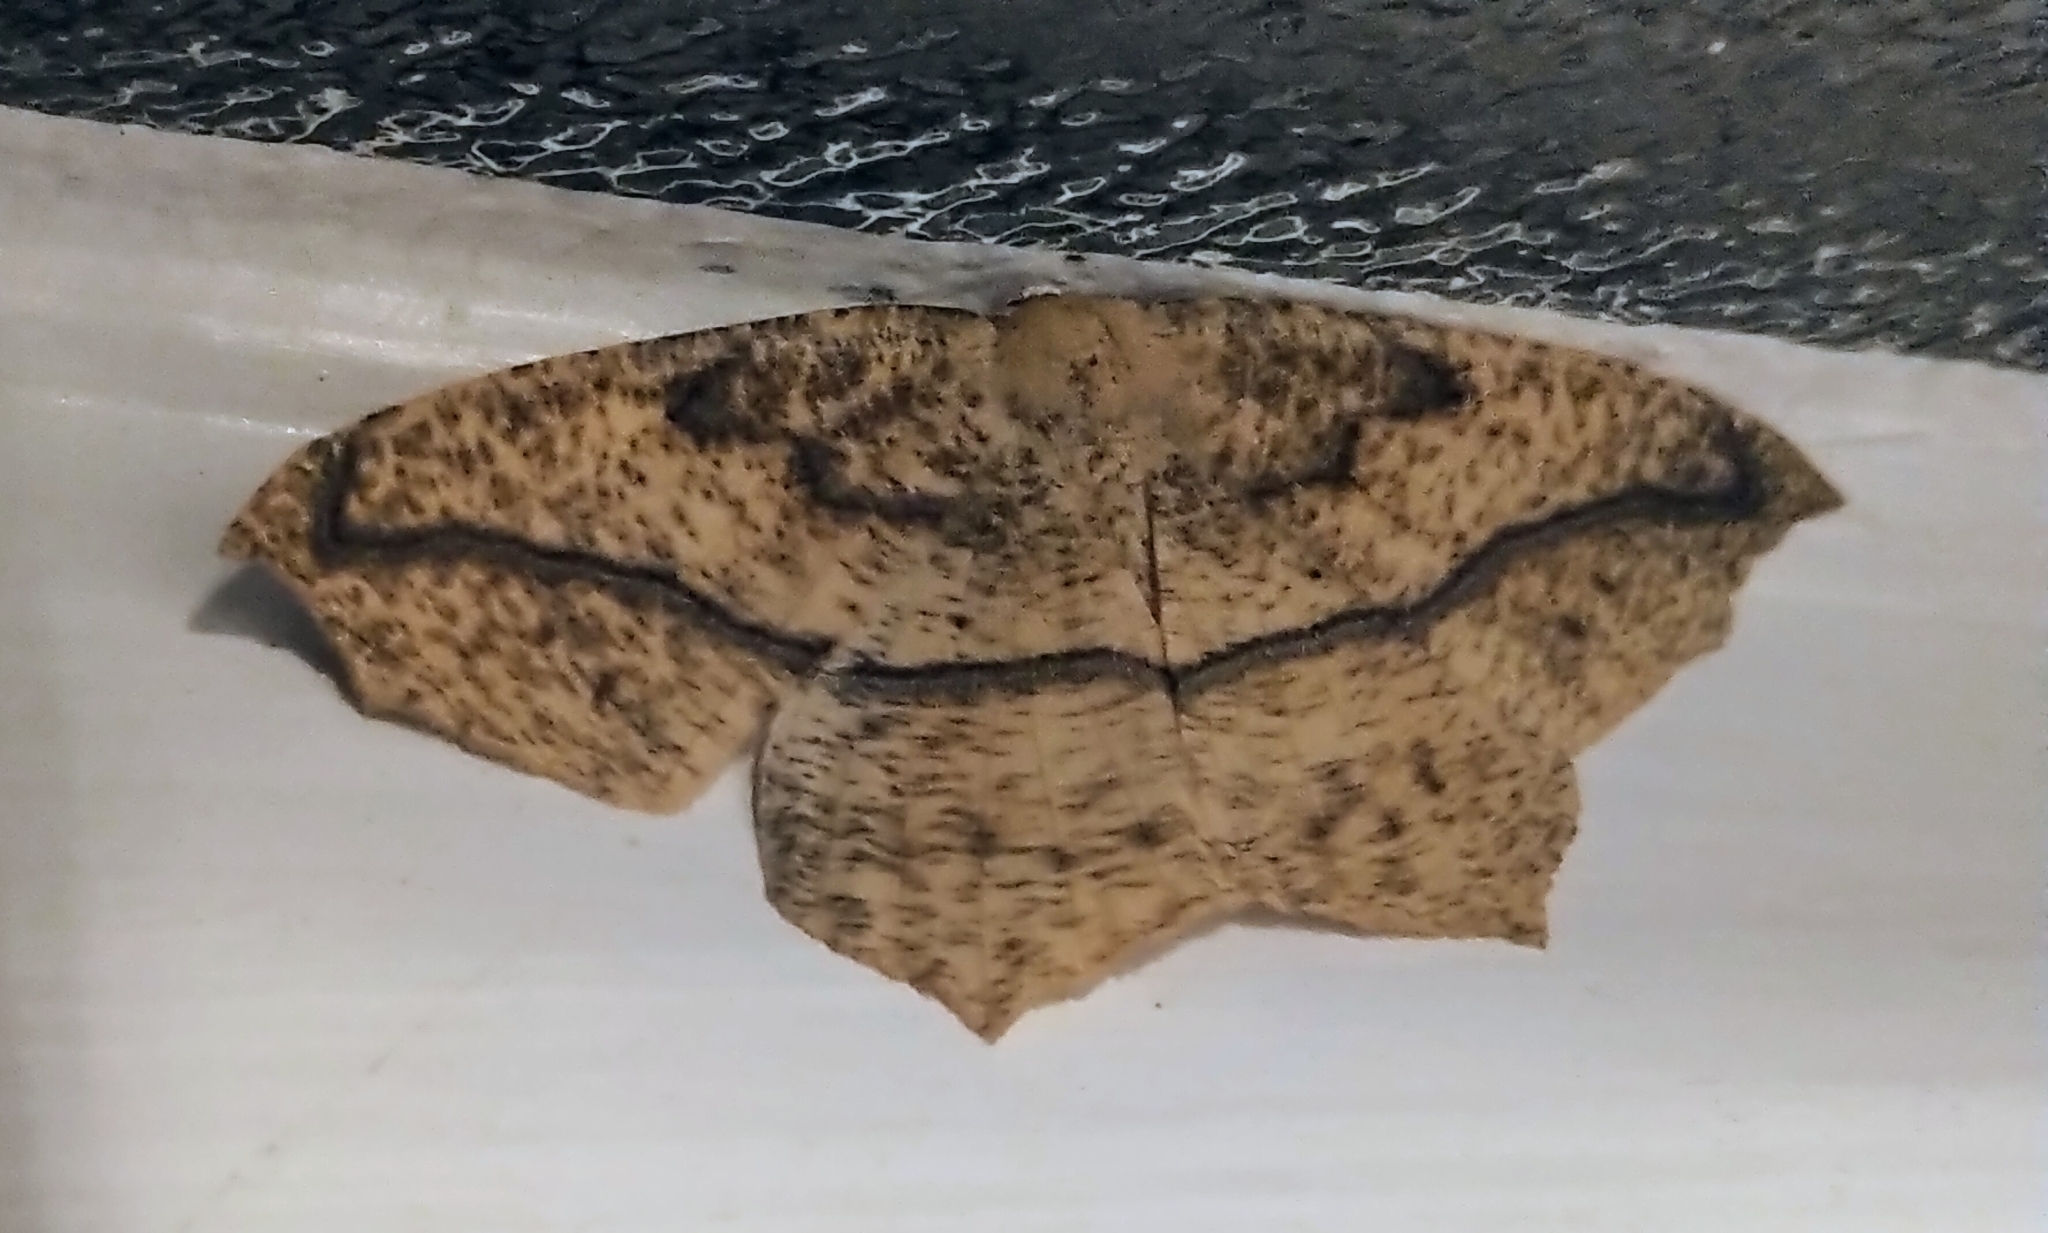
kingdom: Animalia
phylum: Arthropoda
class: Insecta
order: Lepidoptera
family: Geometridae
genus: Prochoerodes
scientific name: Prochoerodes lineola
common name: Large maple spanworm
